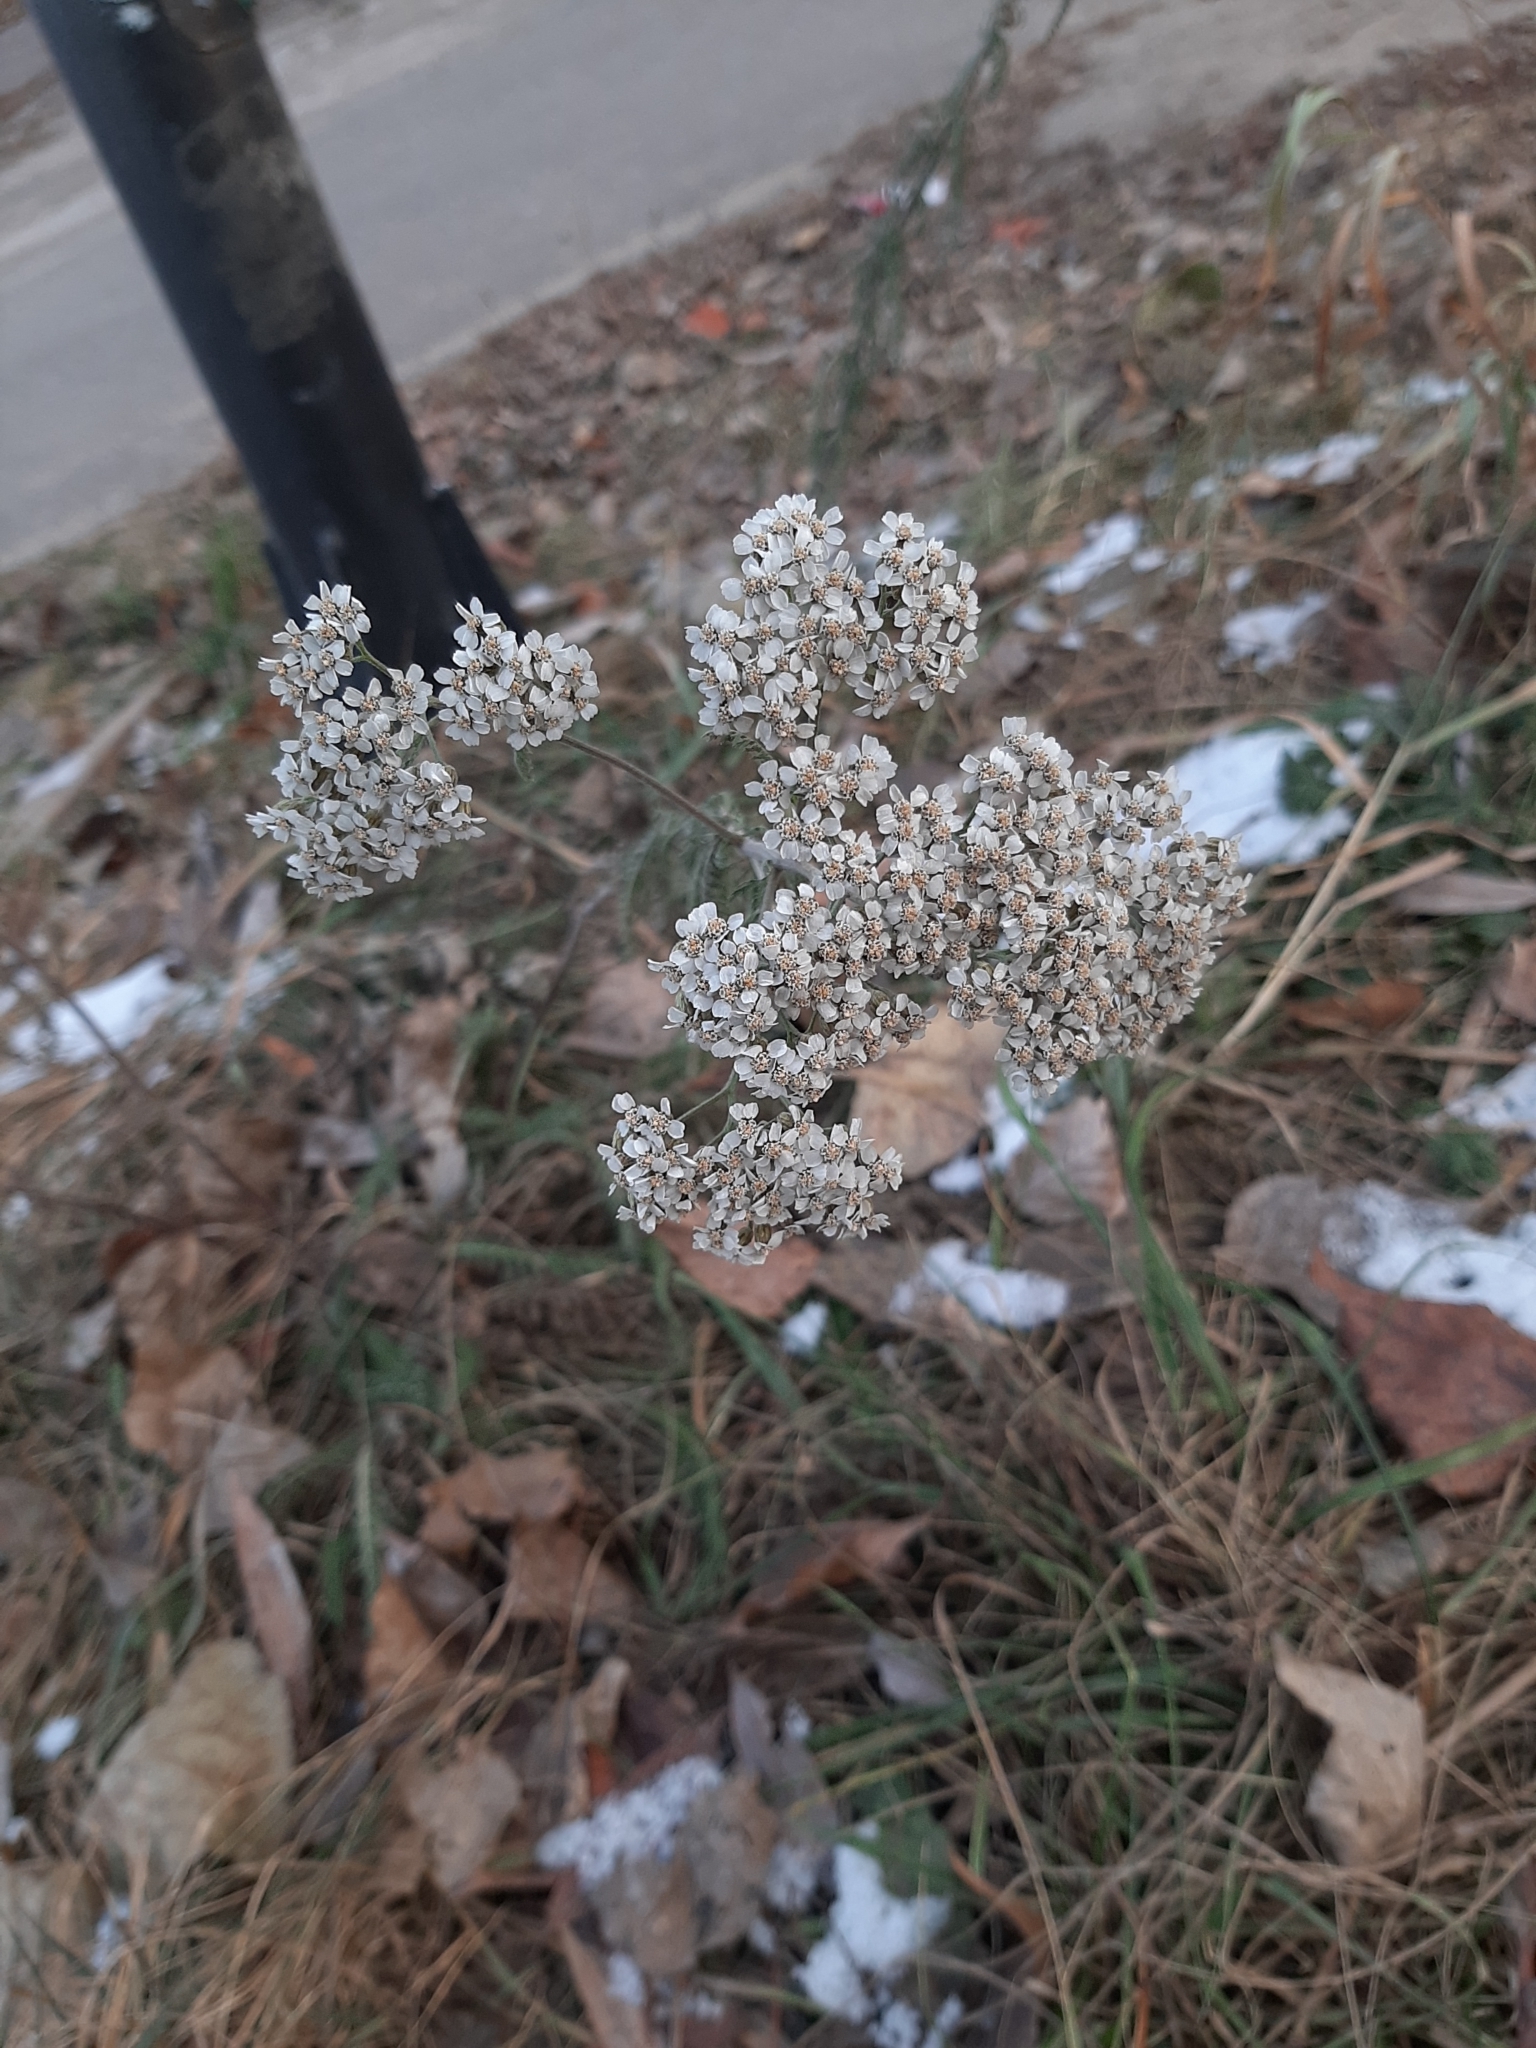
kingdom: Plantae
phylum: Tracheophyta
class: Magnoliopsida
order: Asterales
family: Asteraceae
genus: Achillea
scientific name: Achillea millefolium
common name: Yarrow
